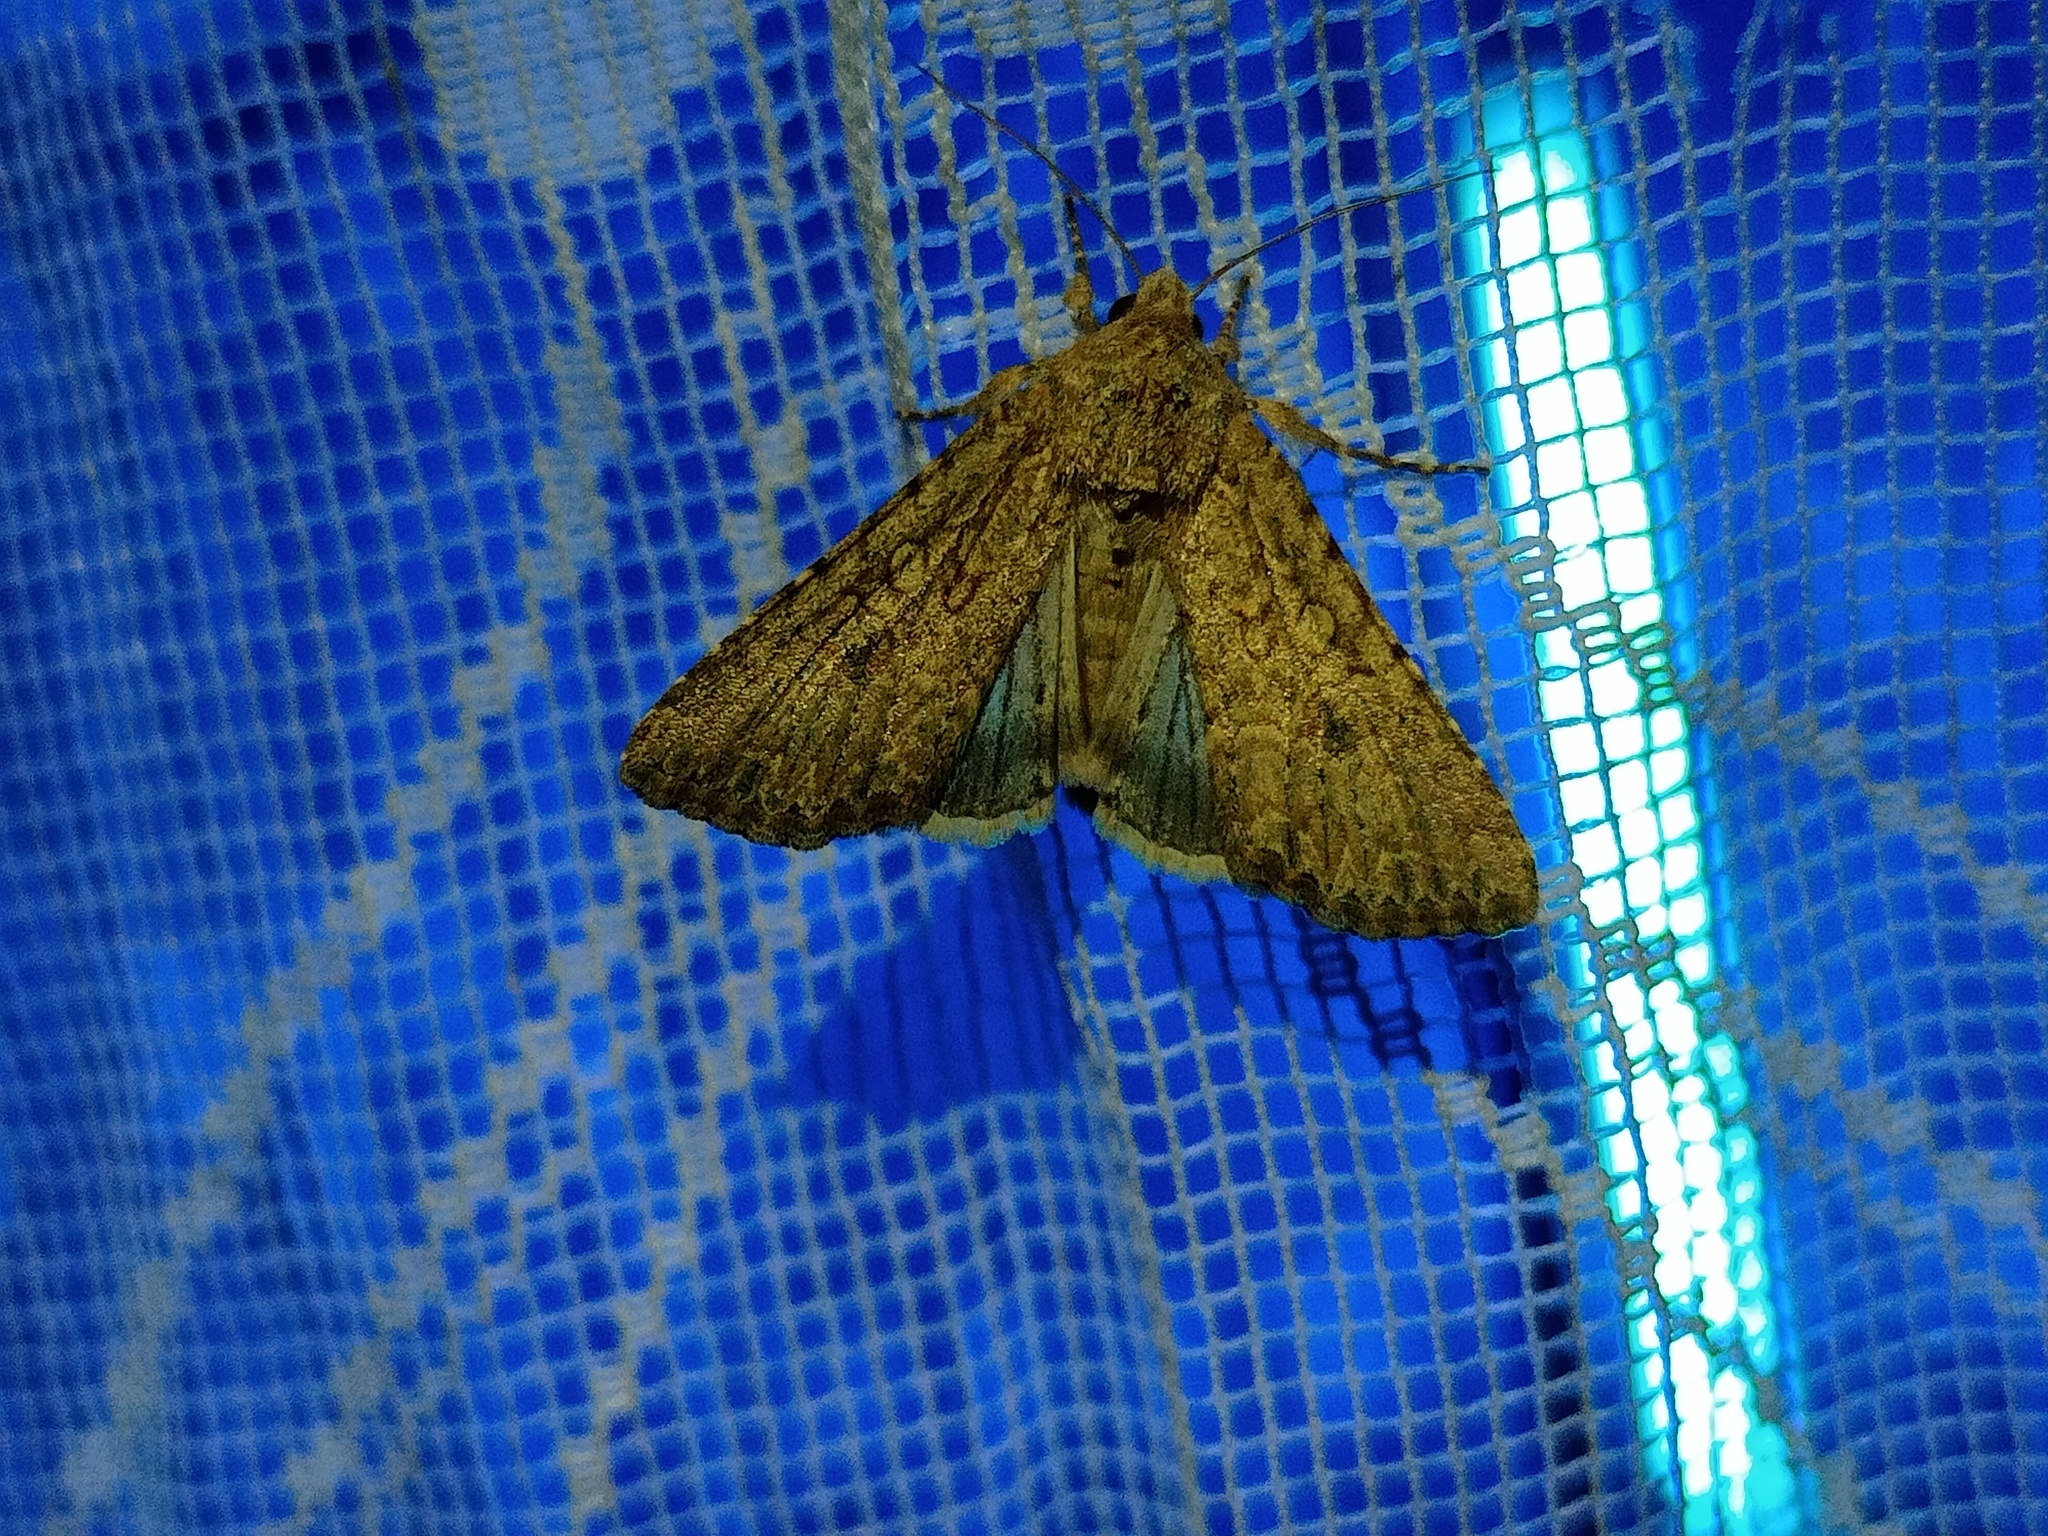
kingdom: Animalia
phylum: Arthropoda
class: Insecta
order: Lepidoptera
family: Noctuidae
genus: Anarta
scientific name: Anarta trifolii
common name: Clover cutworm moth
